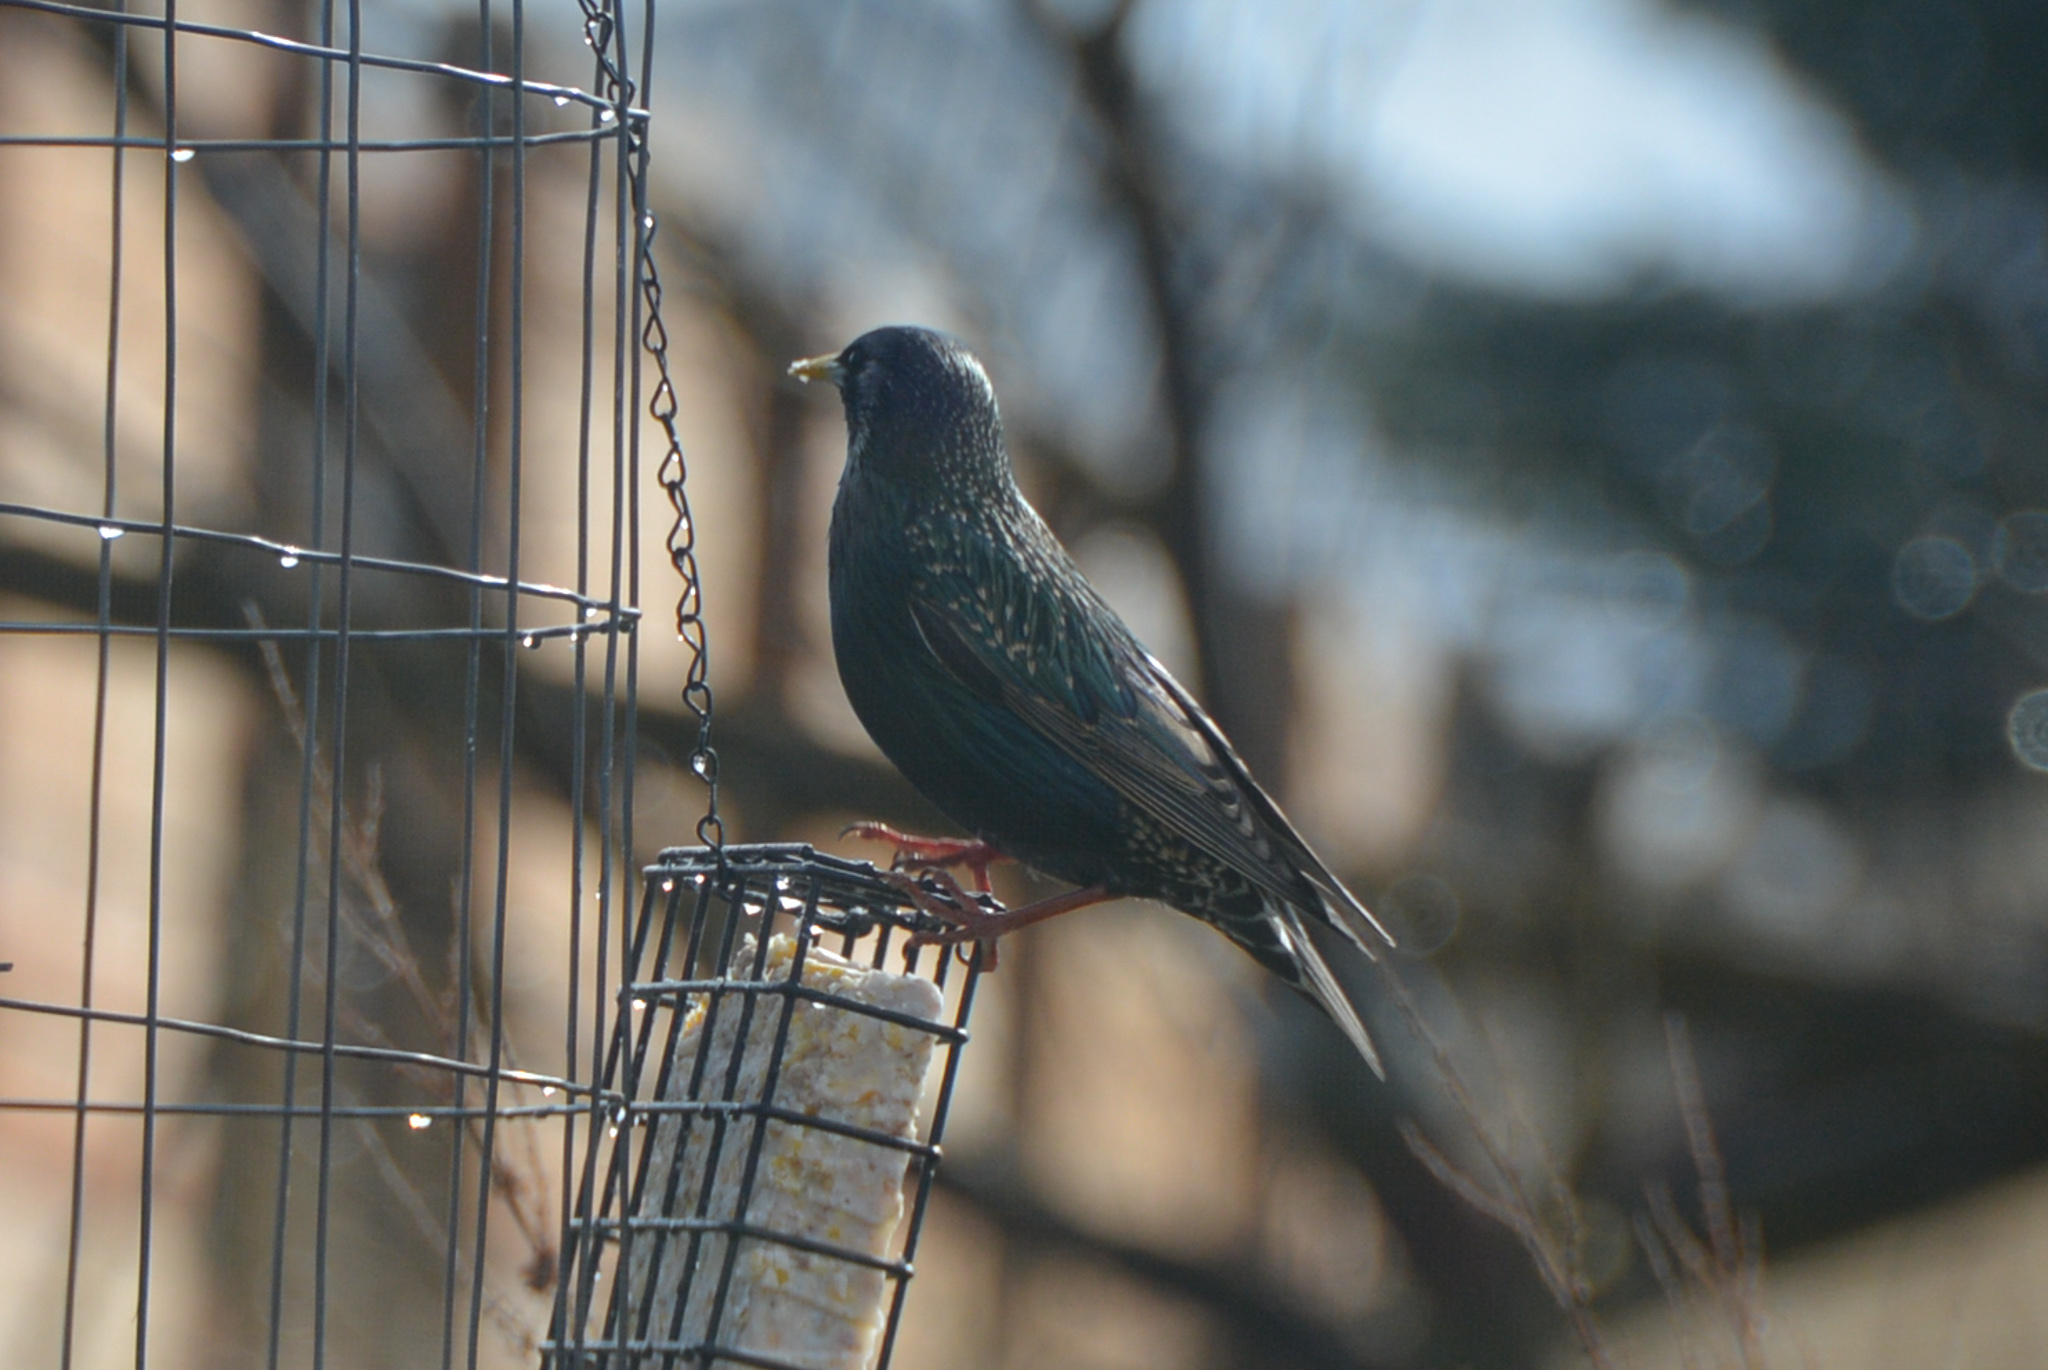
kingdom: Animalia
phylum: Chordata
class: Aves
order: Passeriformes
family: Sturnidae
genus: Sturnus
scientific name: Sturnus vulgaris
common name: Common starling
